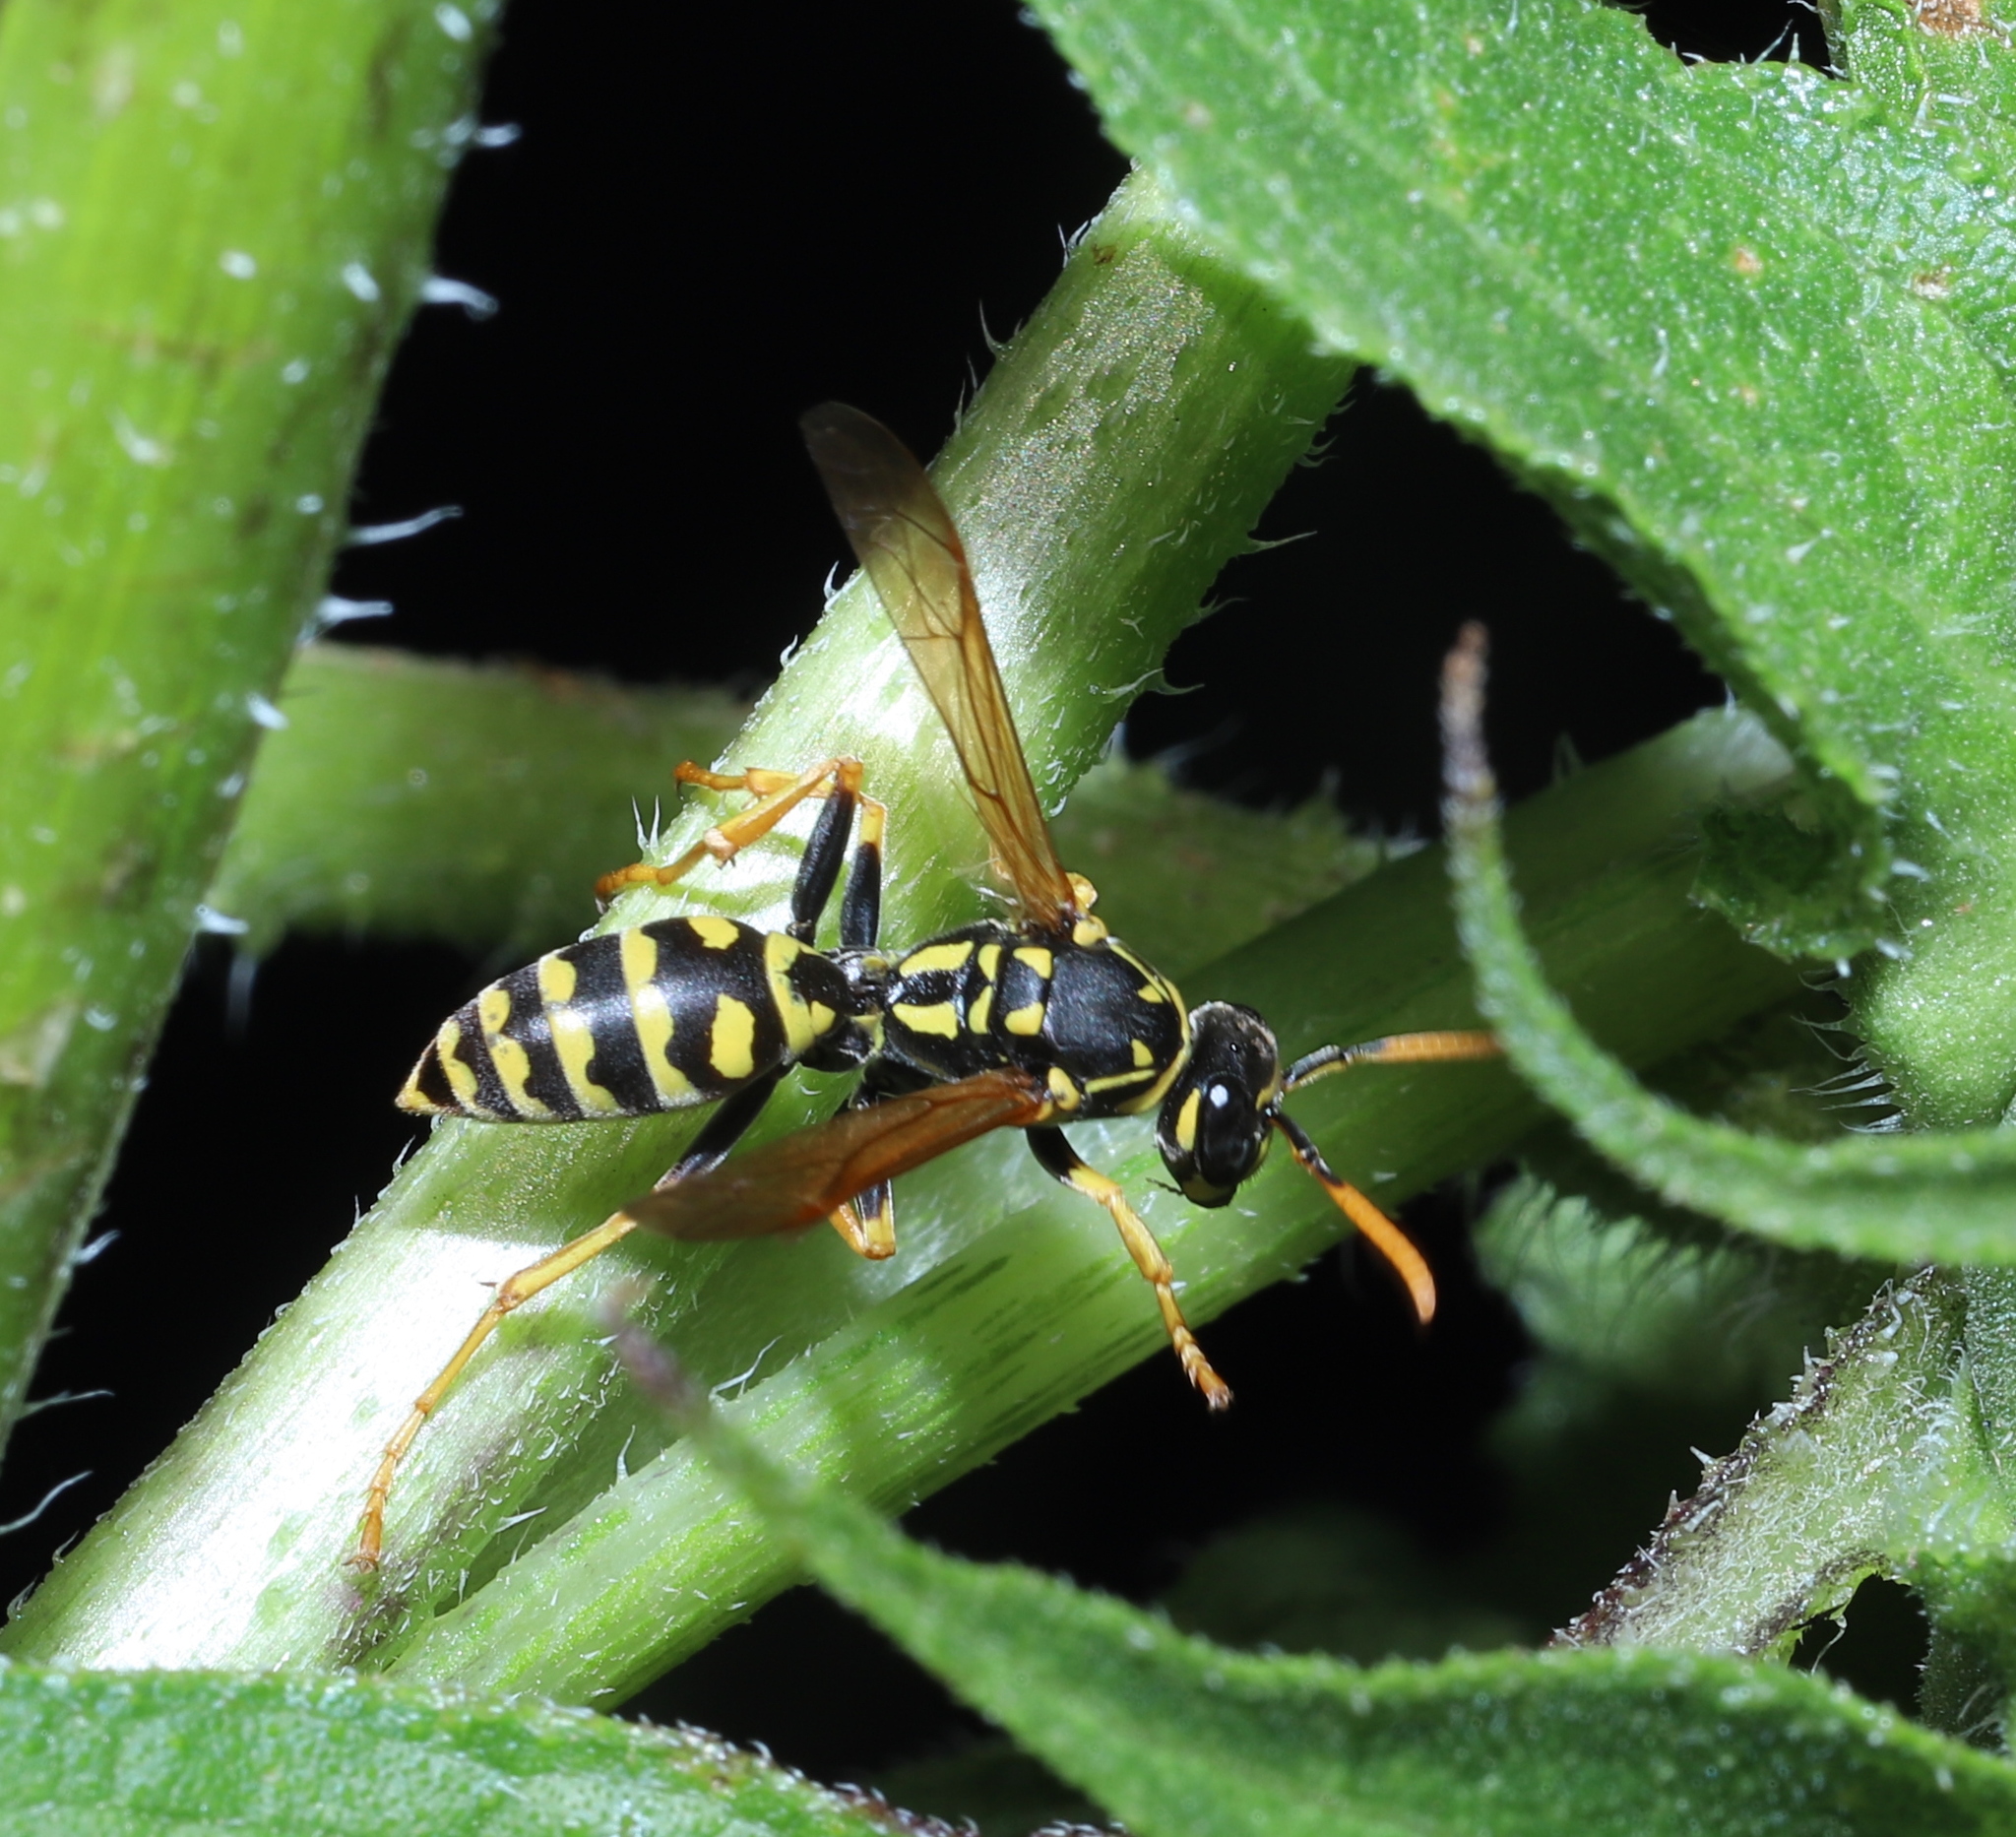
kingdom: Animalia
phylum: Arthropoda
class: Insecta
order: Hymenoptera
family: Eumenidae
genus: Polistes
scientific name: Polistes dominula
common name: Paper wasp
